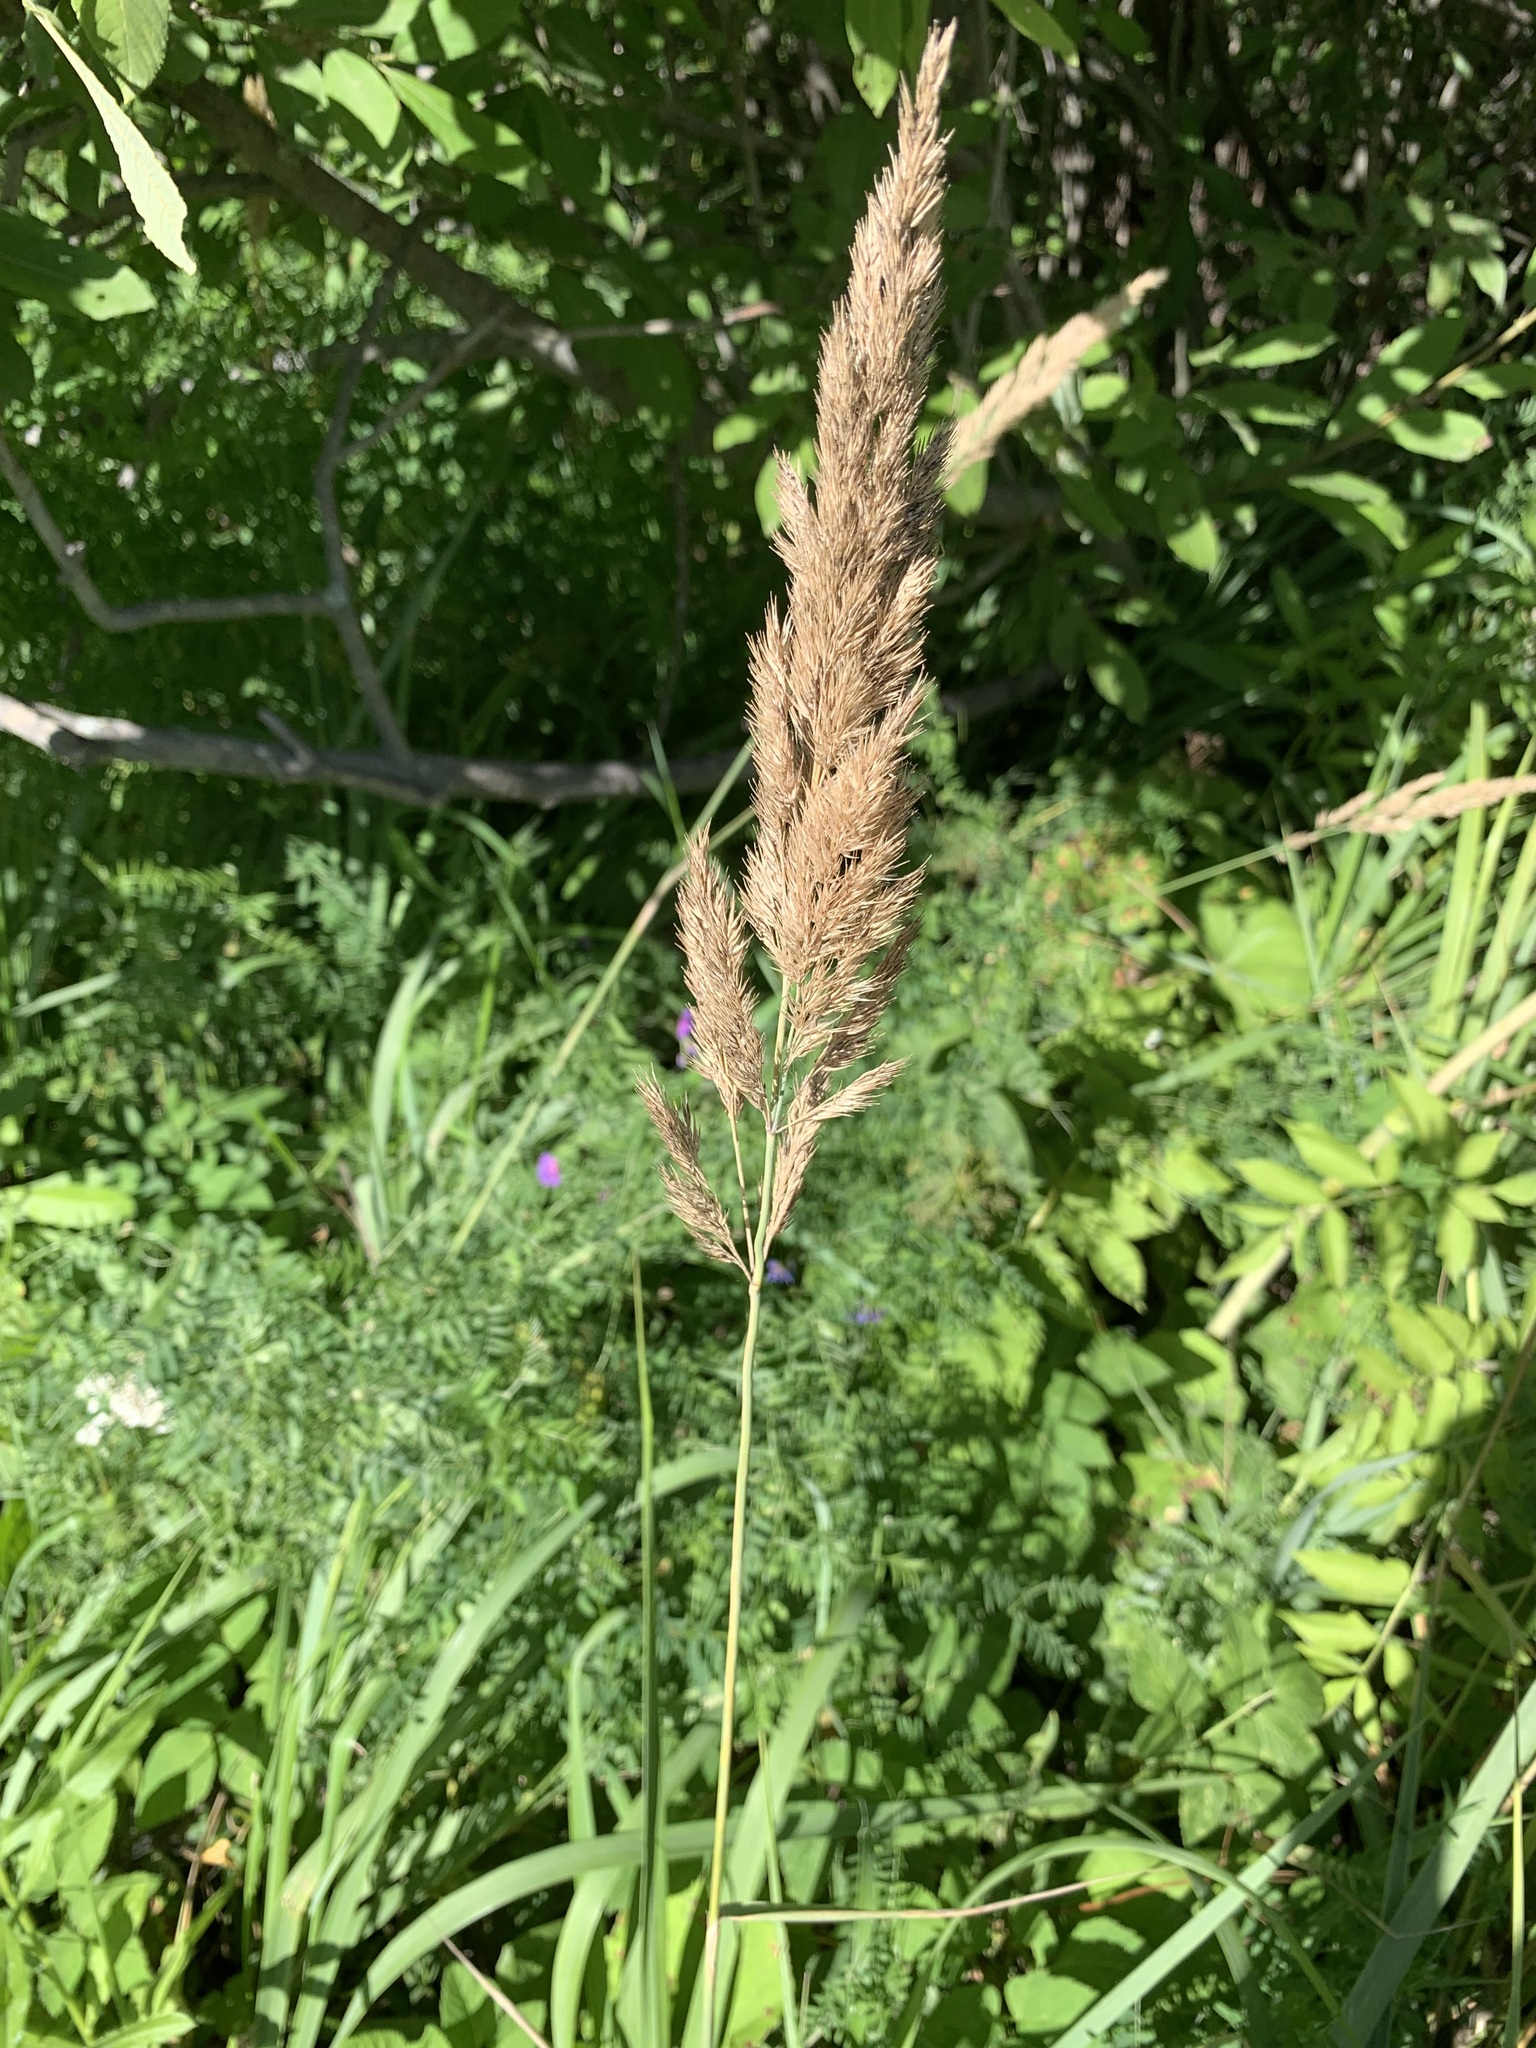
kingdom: Plantae
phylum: Tracheophyta
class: Liliopsida
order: Poales
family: Poaceae
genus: Calamagrostis
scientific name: Calamagrostis epigejos
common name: Wood small-reed
